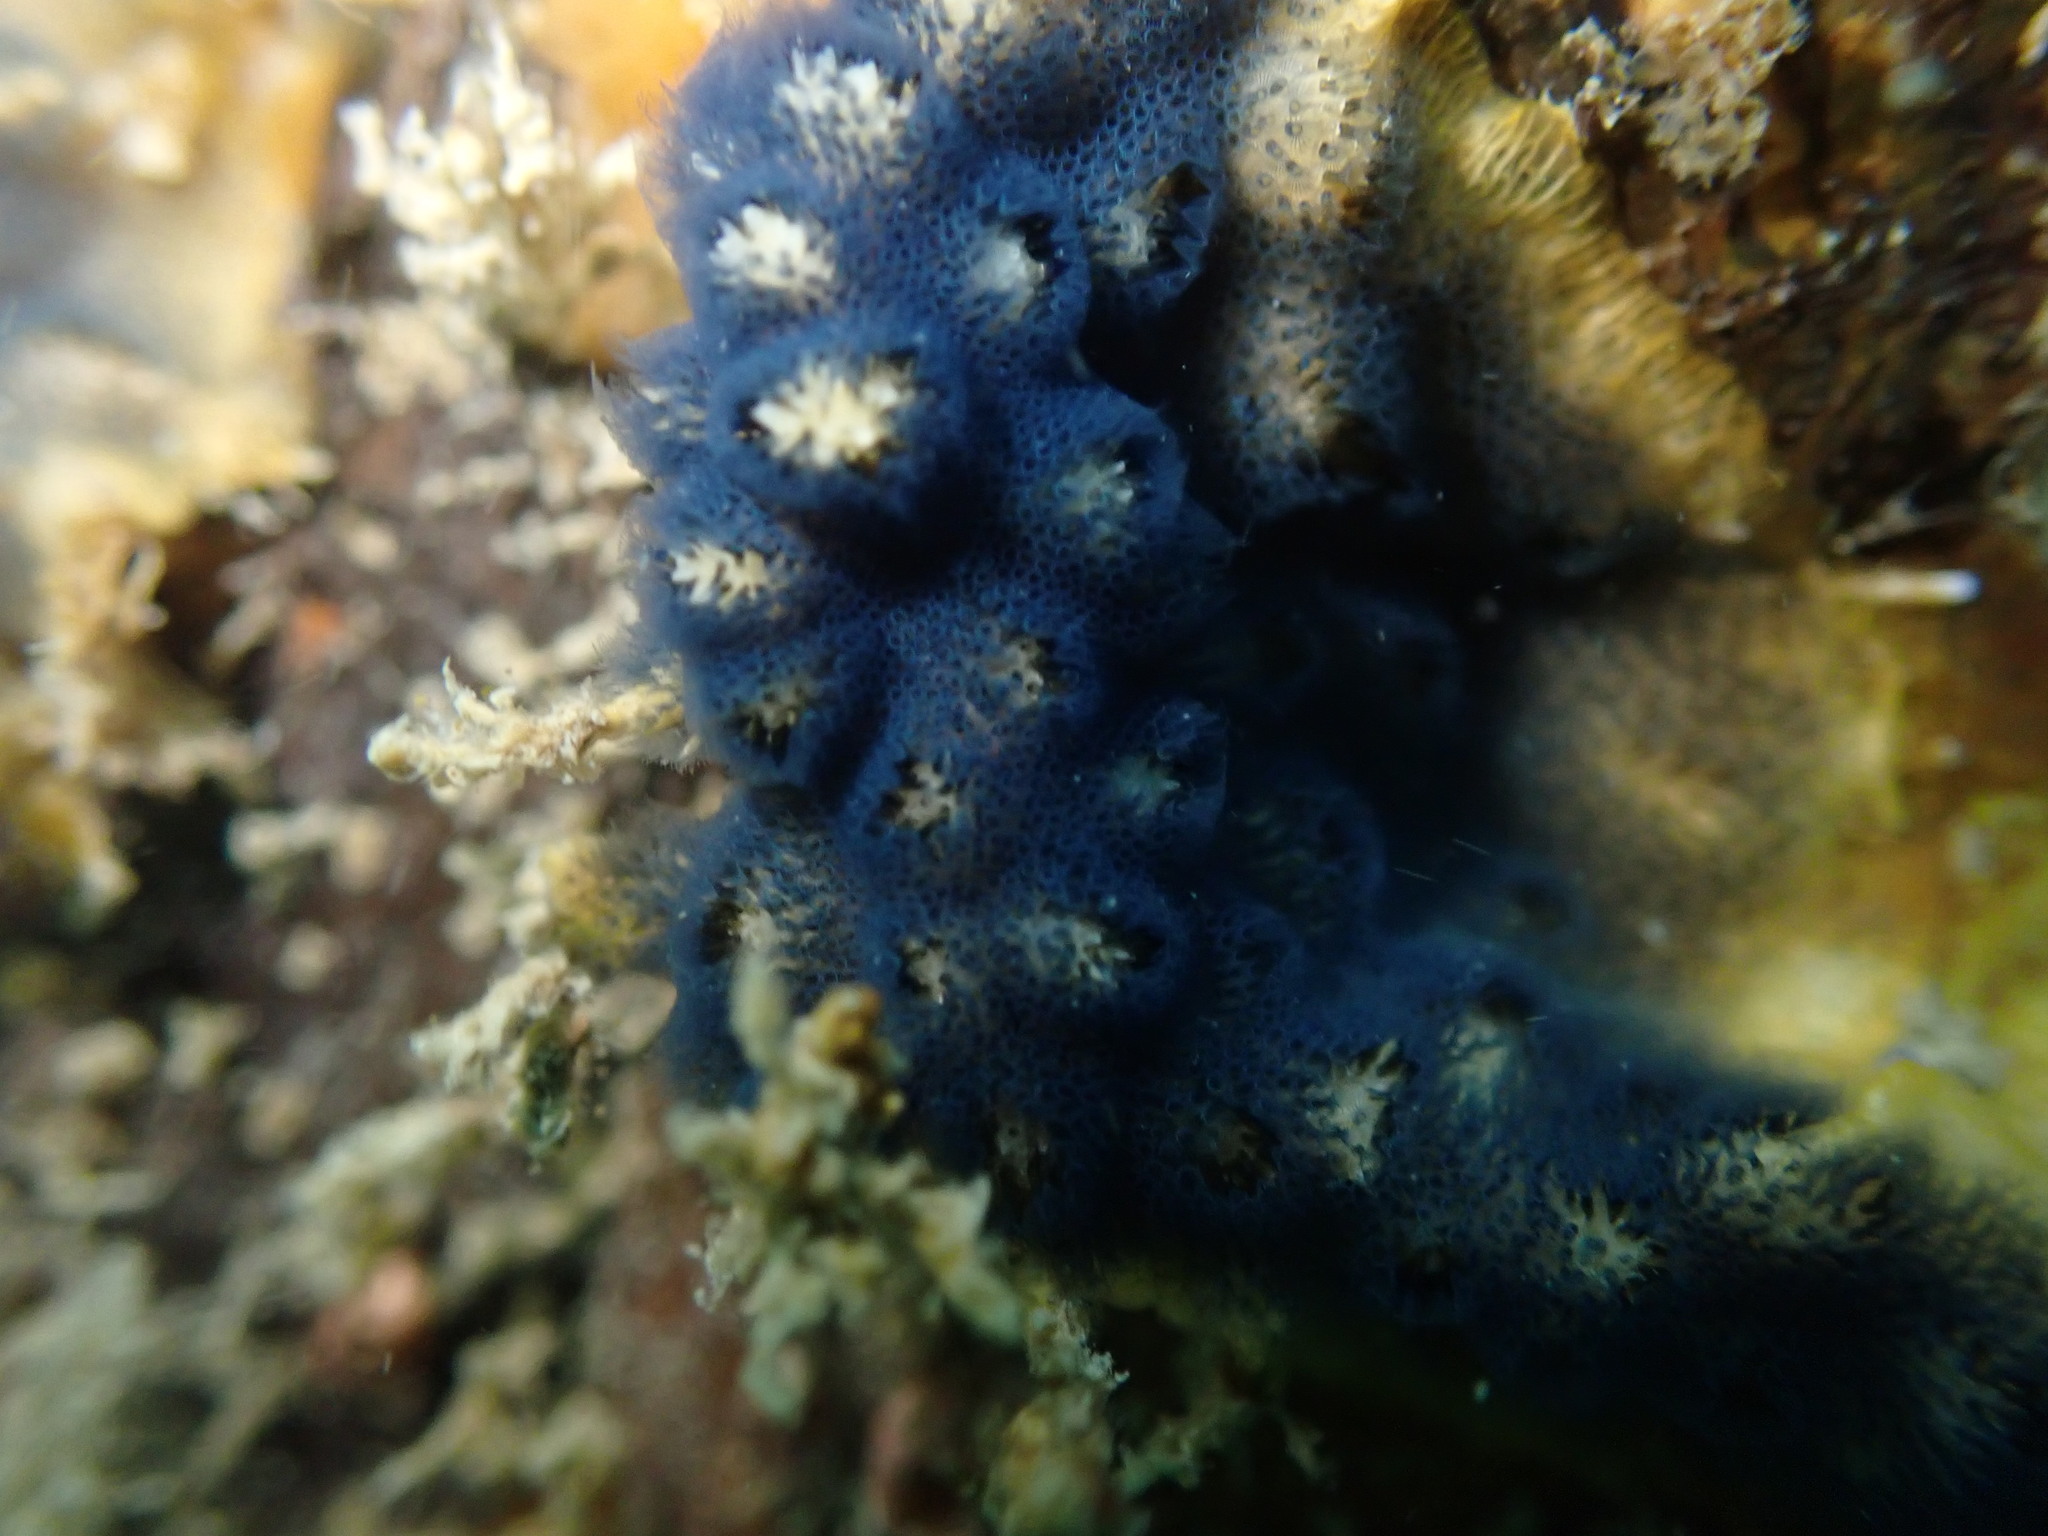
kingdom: Animalia
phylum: Bryozoa
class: Gymnolaemata
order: Cheilostomatida
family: Celleporidae
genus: Celleporaria
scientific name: Celleporaria nodulosa
